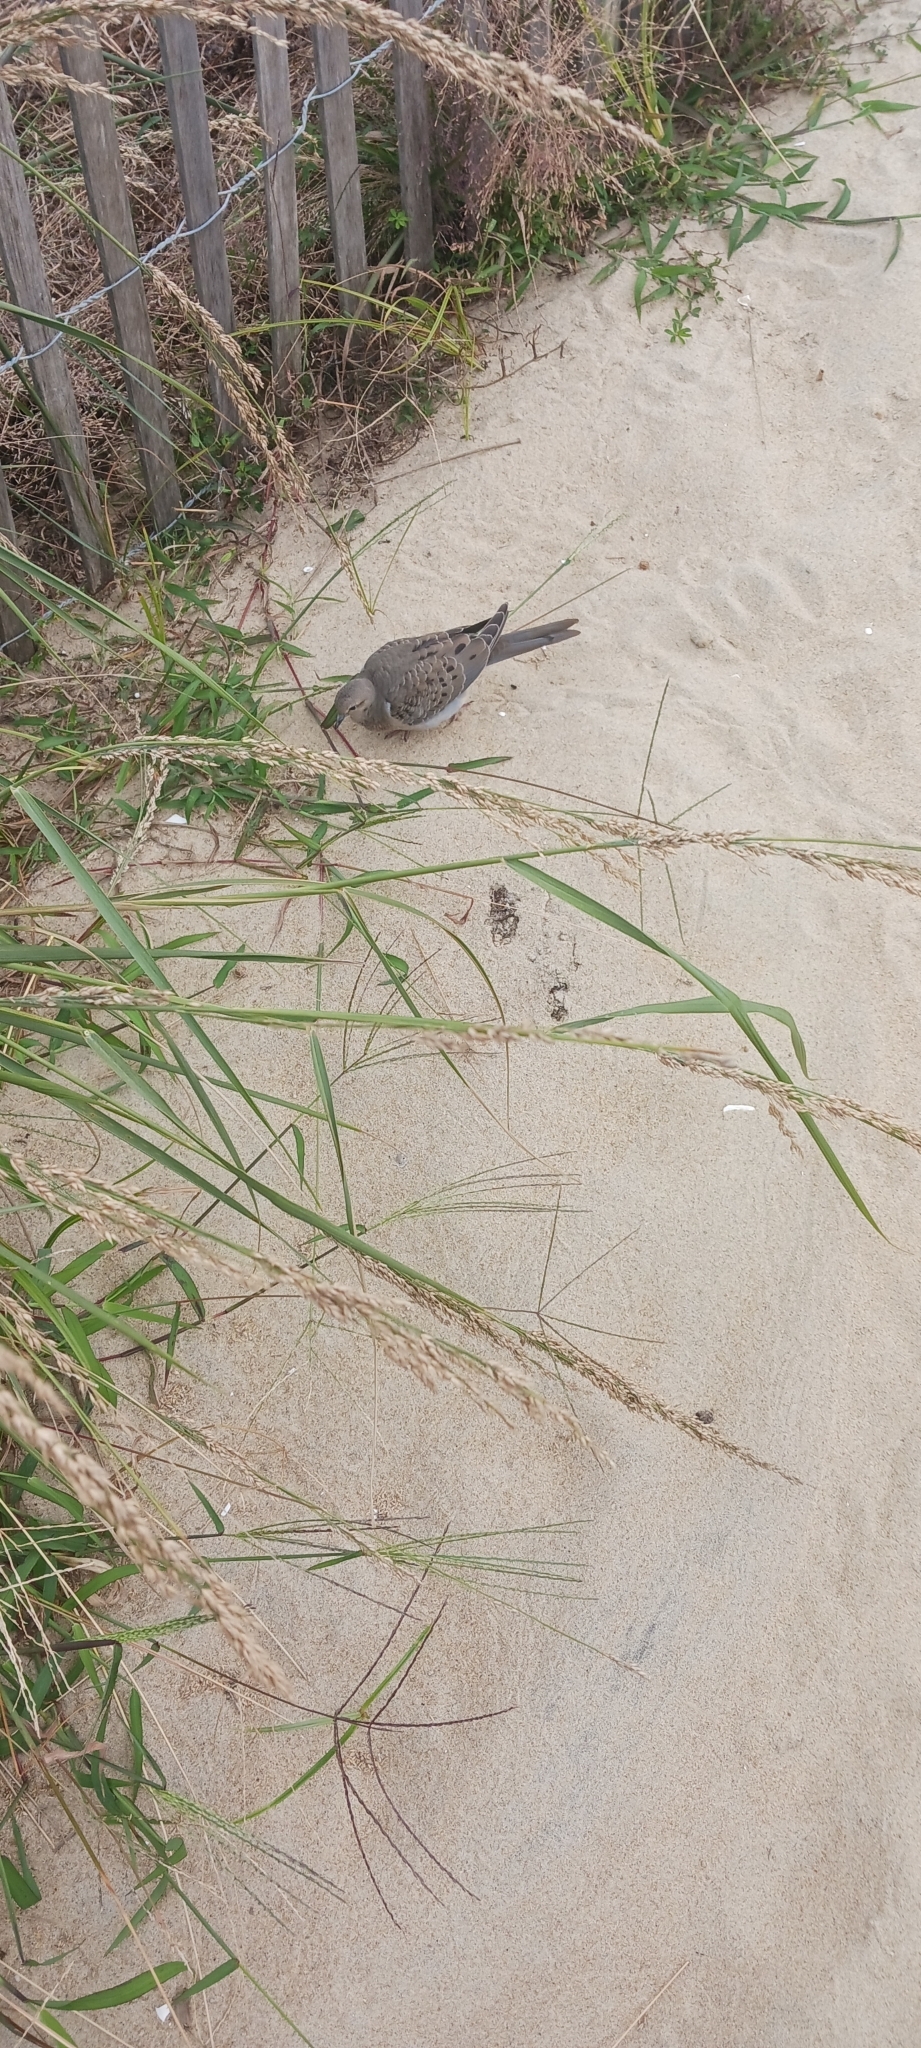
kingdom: Animalia
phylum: Chordata
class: Aves
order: Columbiformes
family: Columbidae
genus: Zenaida
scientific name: Zenaida macroura
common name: Mourning dove
